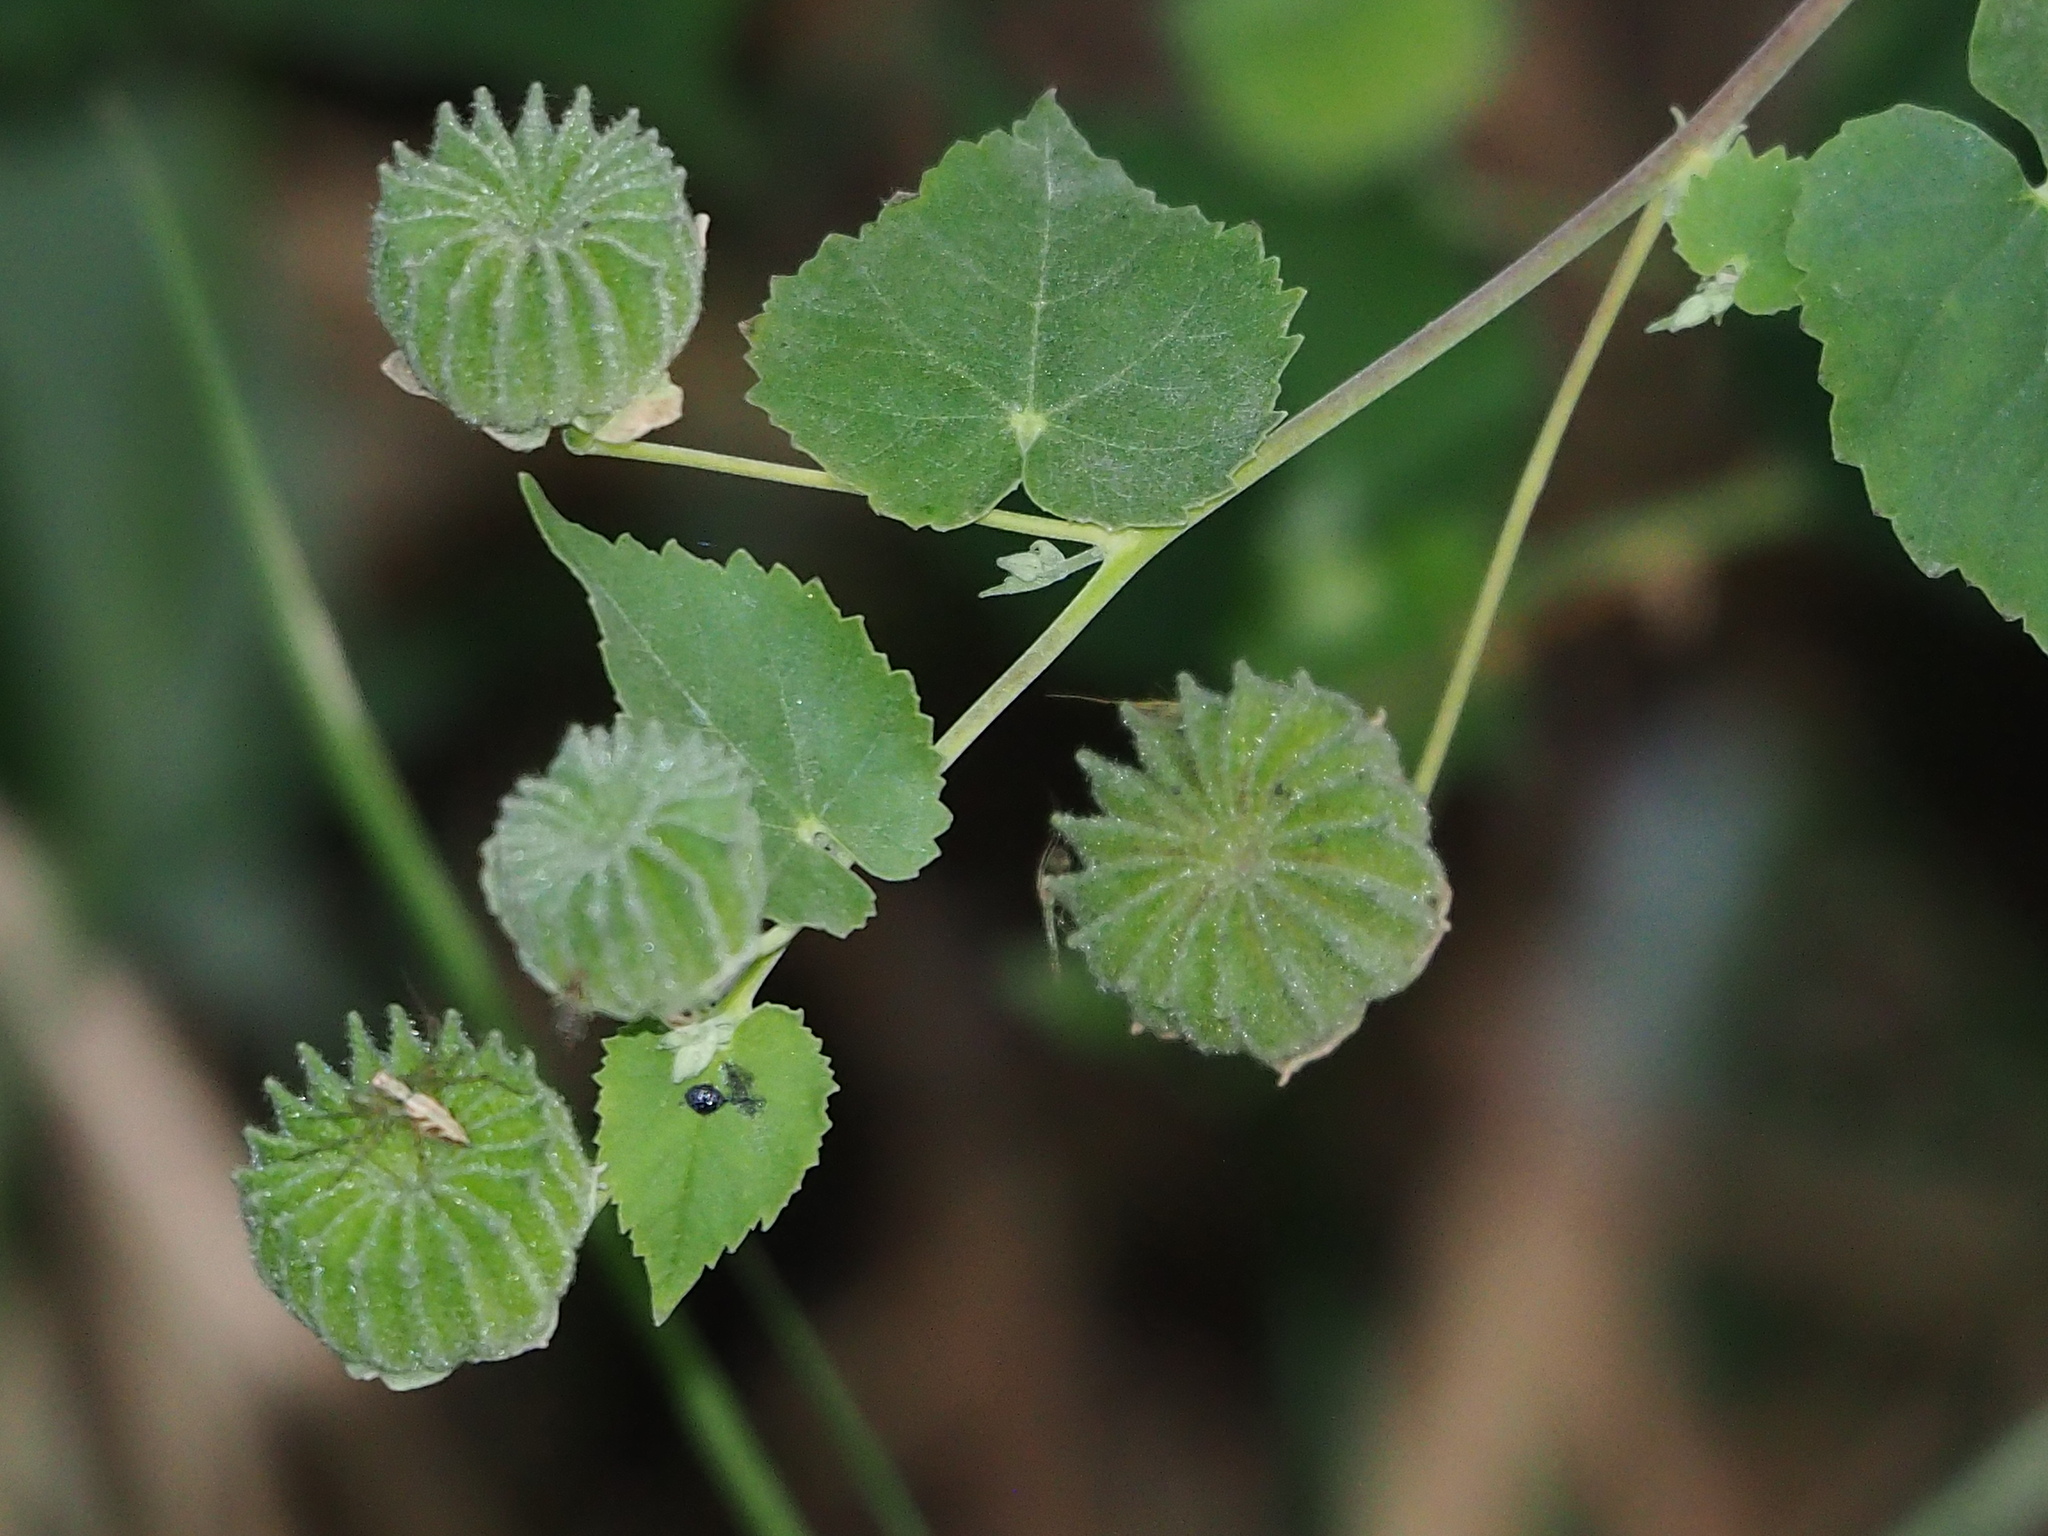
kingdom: Plantae
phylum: Tracheophyta
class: Magnoliopsida
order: Malvales
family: Malvaceae
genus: Abutilon
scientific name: Abutilon indicum
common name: Indian abutilon
